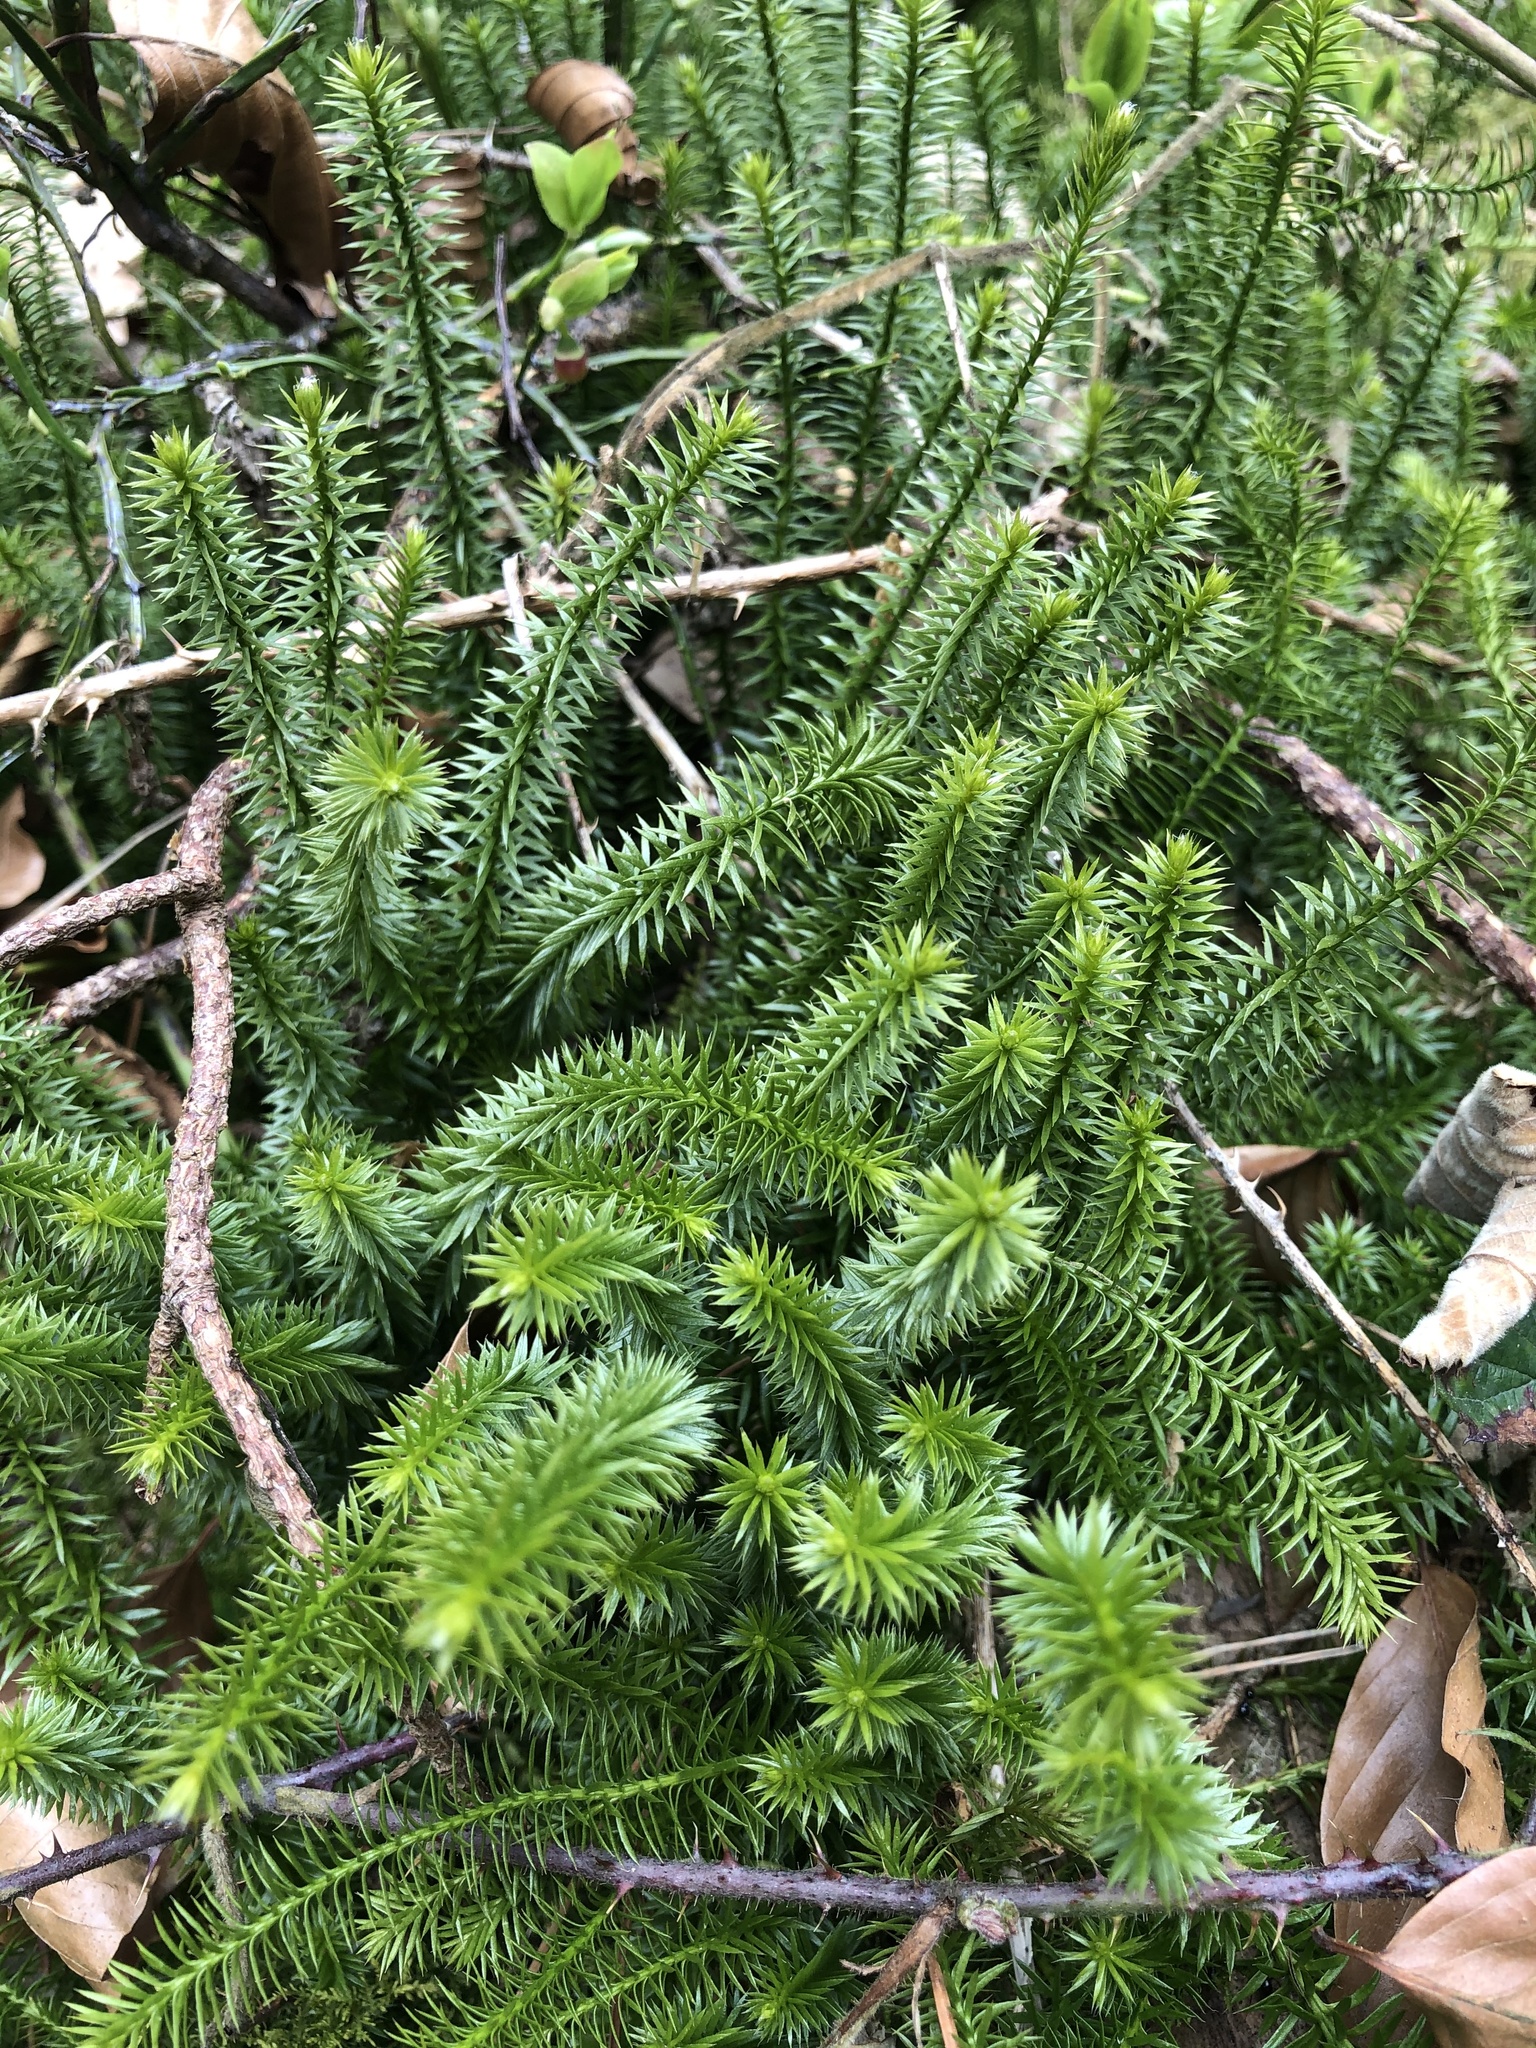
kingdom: Plantae
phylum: Tracheophyta
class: Lycopodiopsida
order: Lycopodiales
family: Lycopodiaceae
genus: Spinulum
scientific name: Spinulum annotinum
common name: Interrupted club-moss
